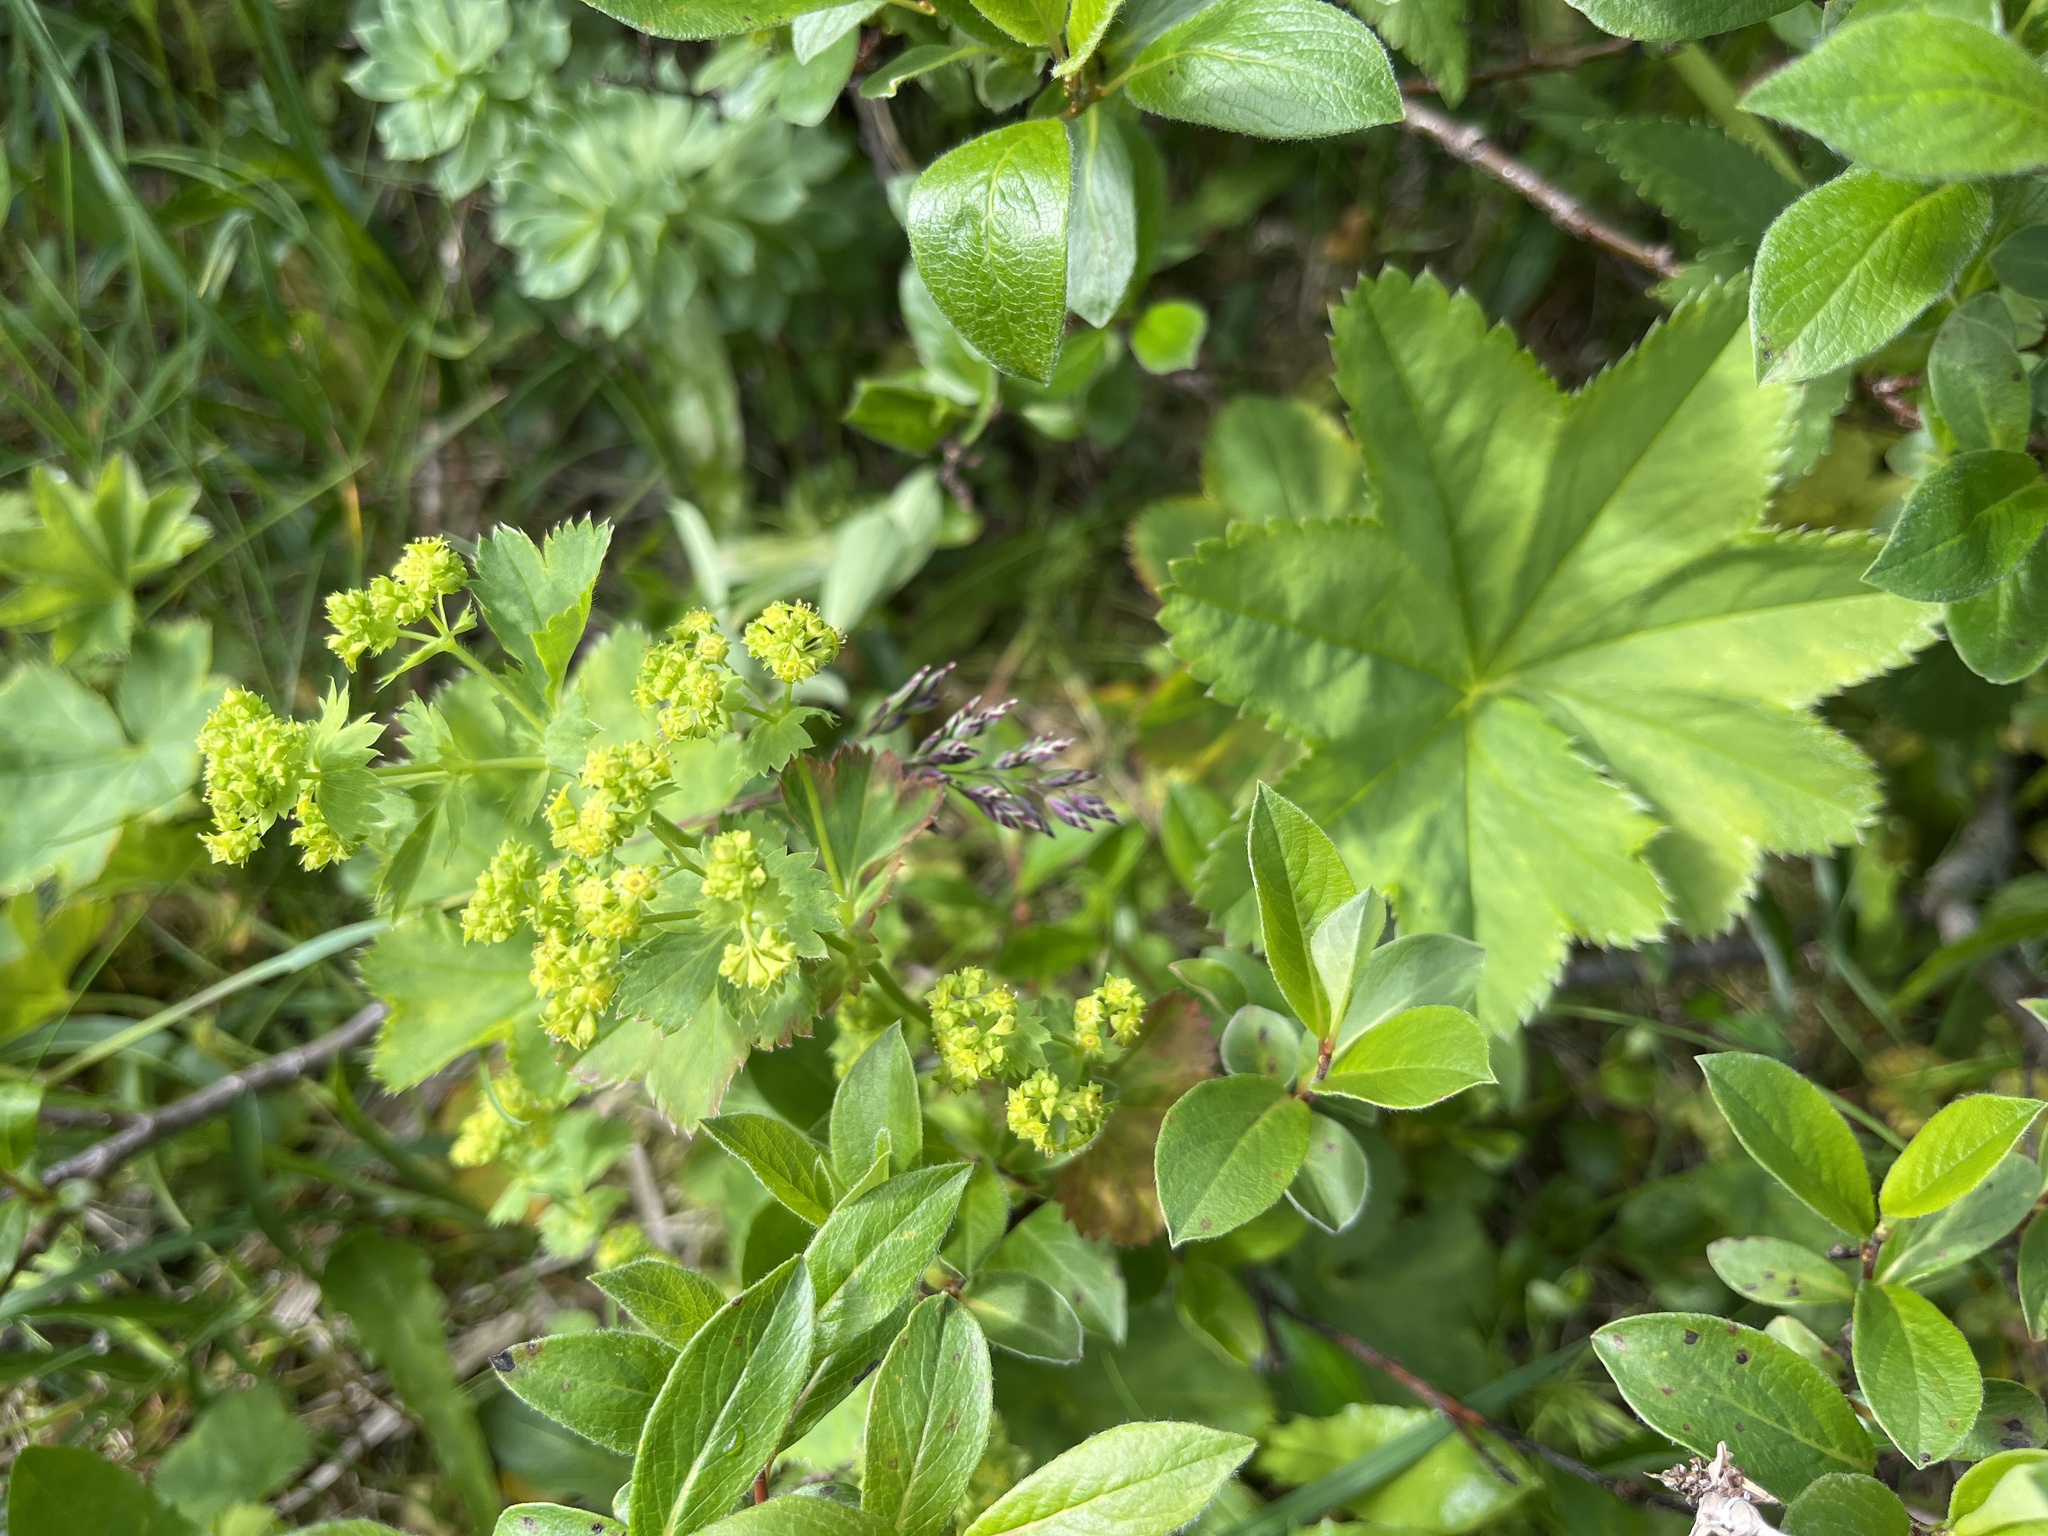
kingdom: Plantae
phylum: Tracheophyta
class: Magnoliopsida
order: Rosales
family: Rosaceae
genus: Alchemilla
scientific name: Alchemilla filicaulis
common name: Hairy lady's-mantle
